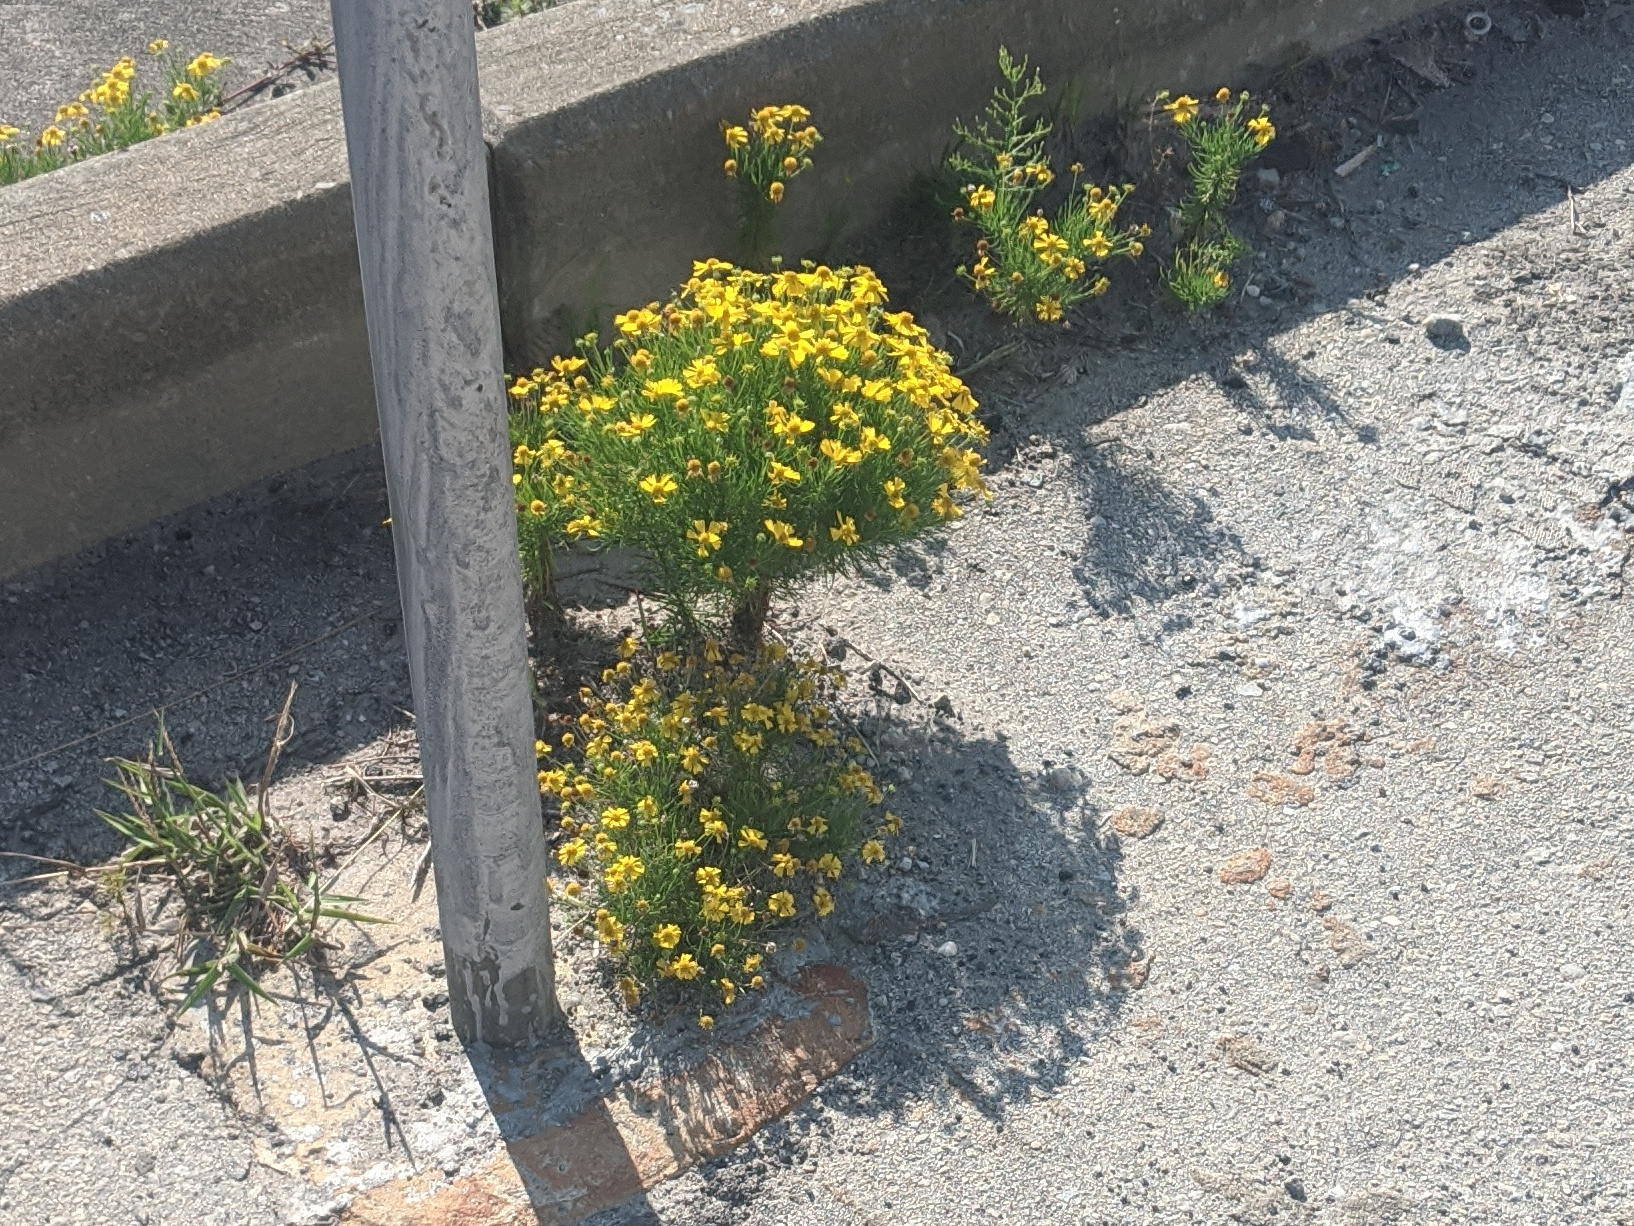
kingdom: Plantae
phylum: Tracheophyta
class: Magnoliopsida
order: Asterales
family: Asteraceae
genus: Helenium
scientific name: Helenium amarum
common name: Bitter sneezeweed
